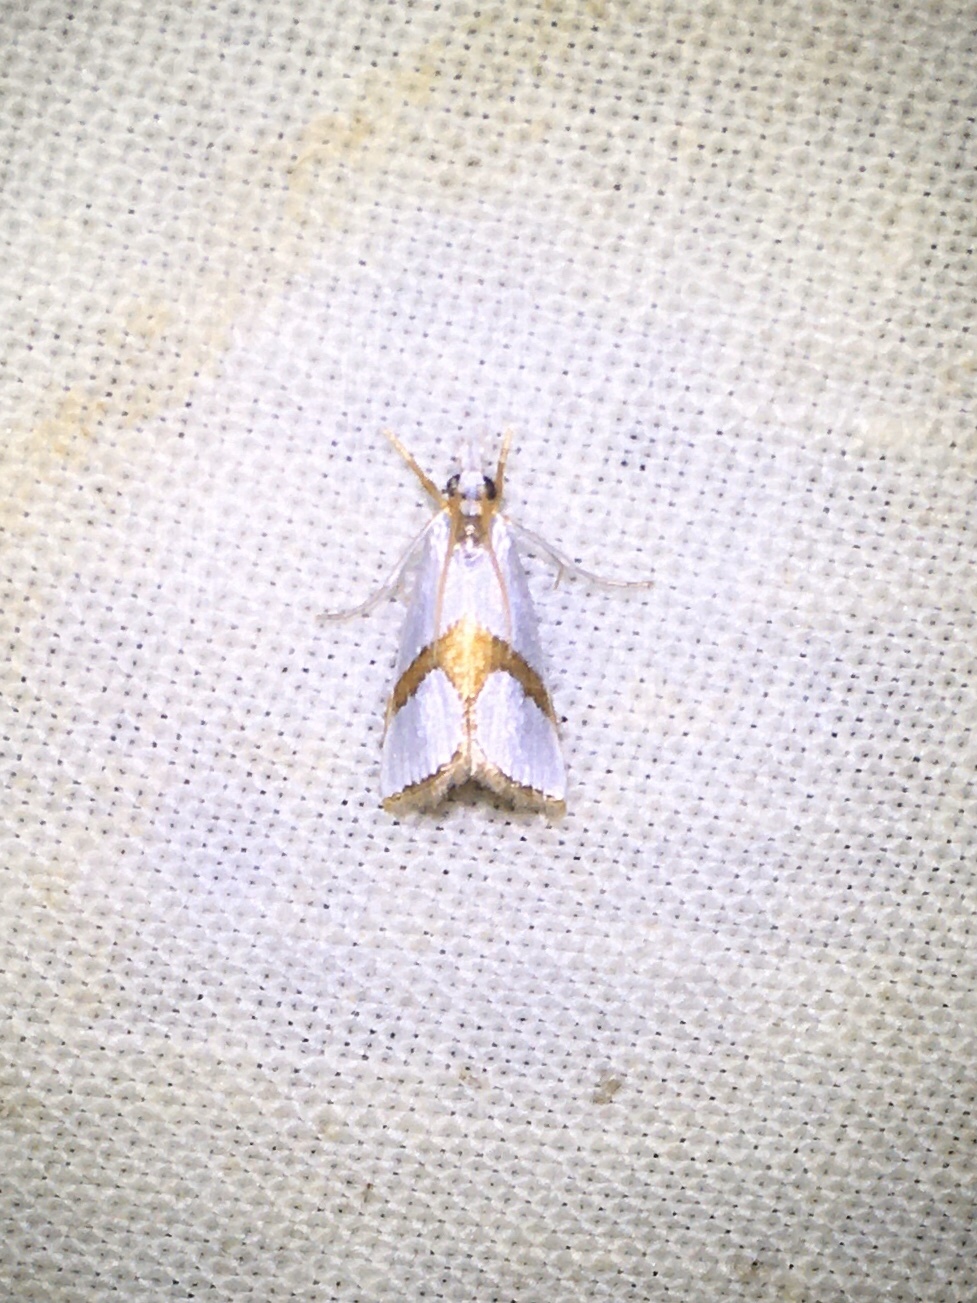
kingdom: Animalia
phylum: Arthropoda
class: Insecta
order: Lepidoptera
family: Crambidae
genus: Argyria
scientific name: Argyria auratella
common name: Curve-lined argyria moth
